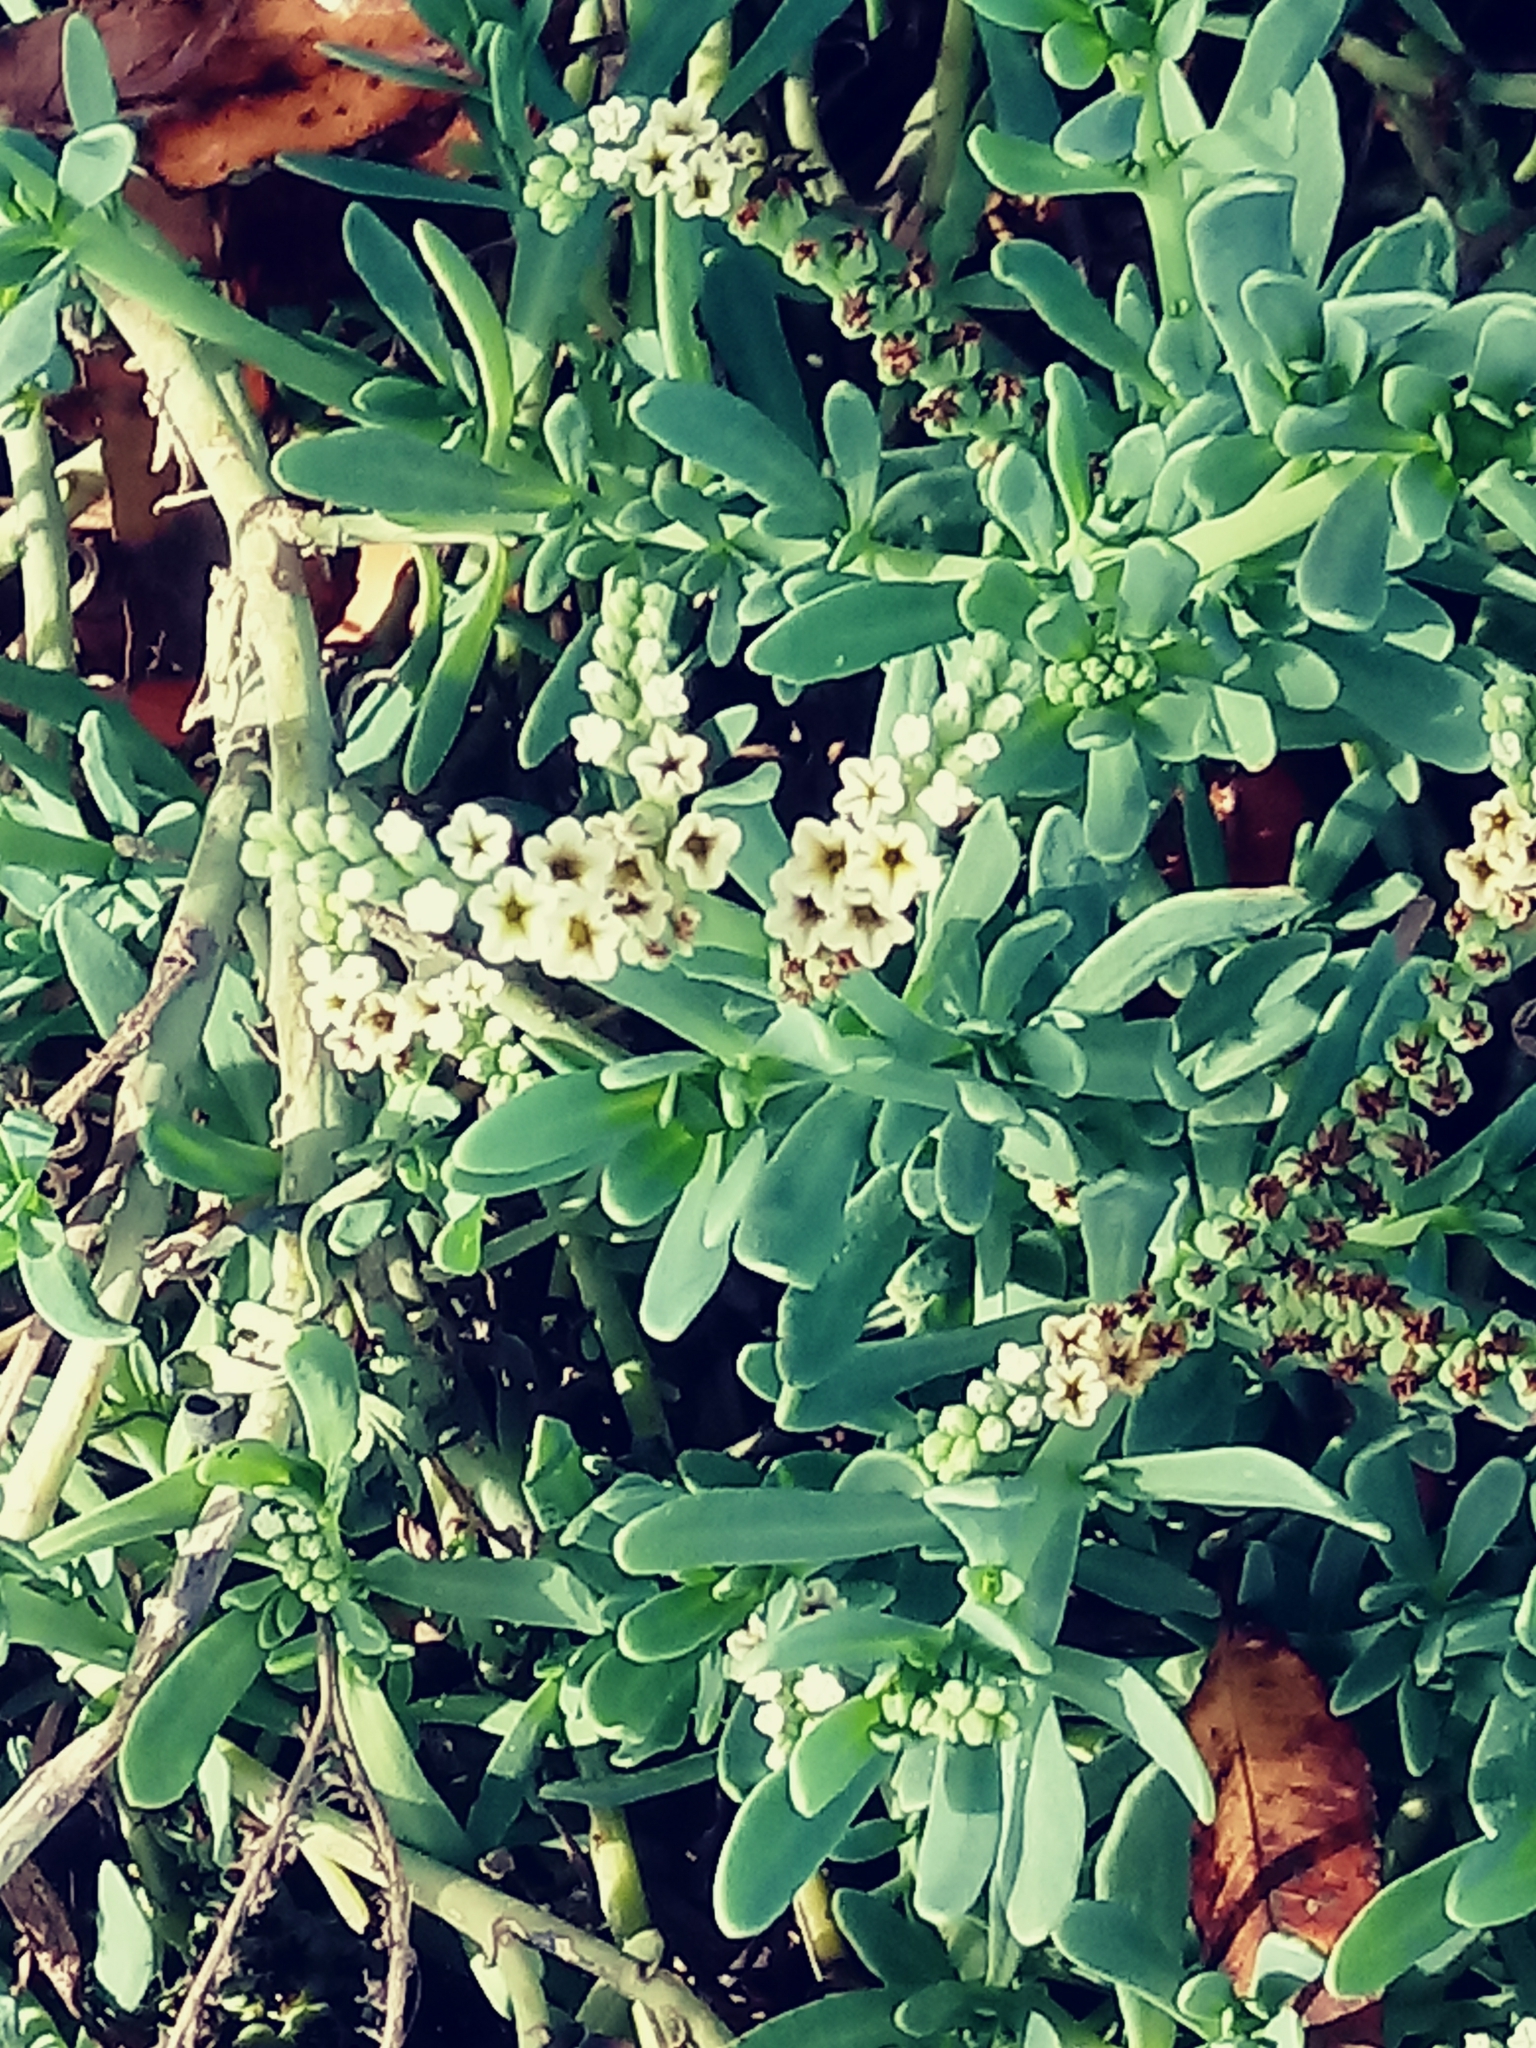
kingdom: Plantae
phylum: Tracheophyta
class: Magnoliopsida
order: Boraginales
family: Heliotropiaceae
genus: Heliotropium
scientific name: Heliotropium curassavicum
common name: Seaside heliotrope
